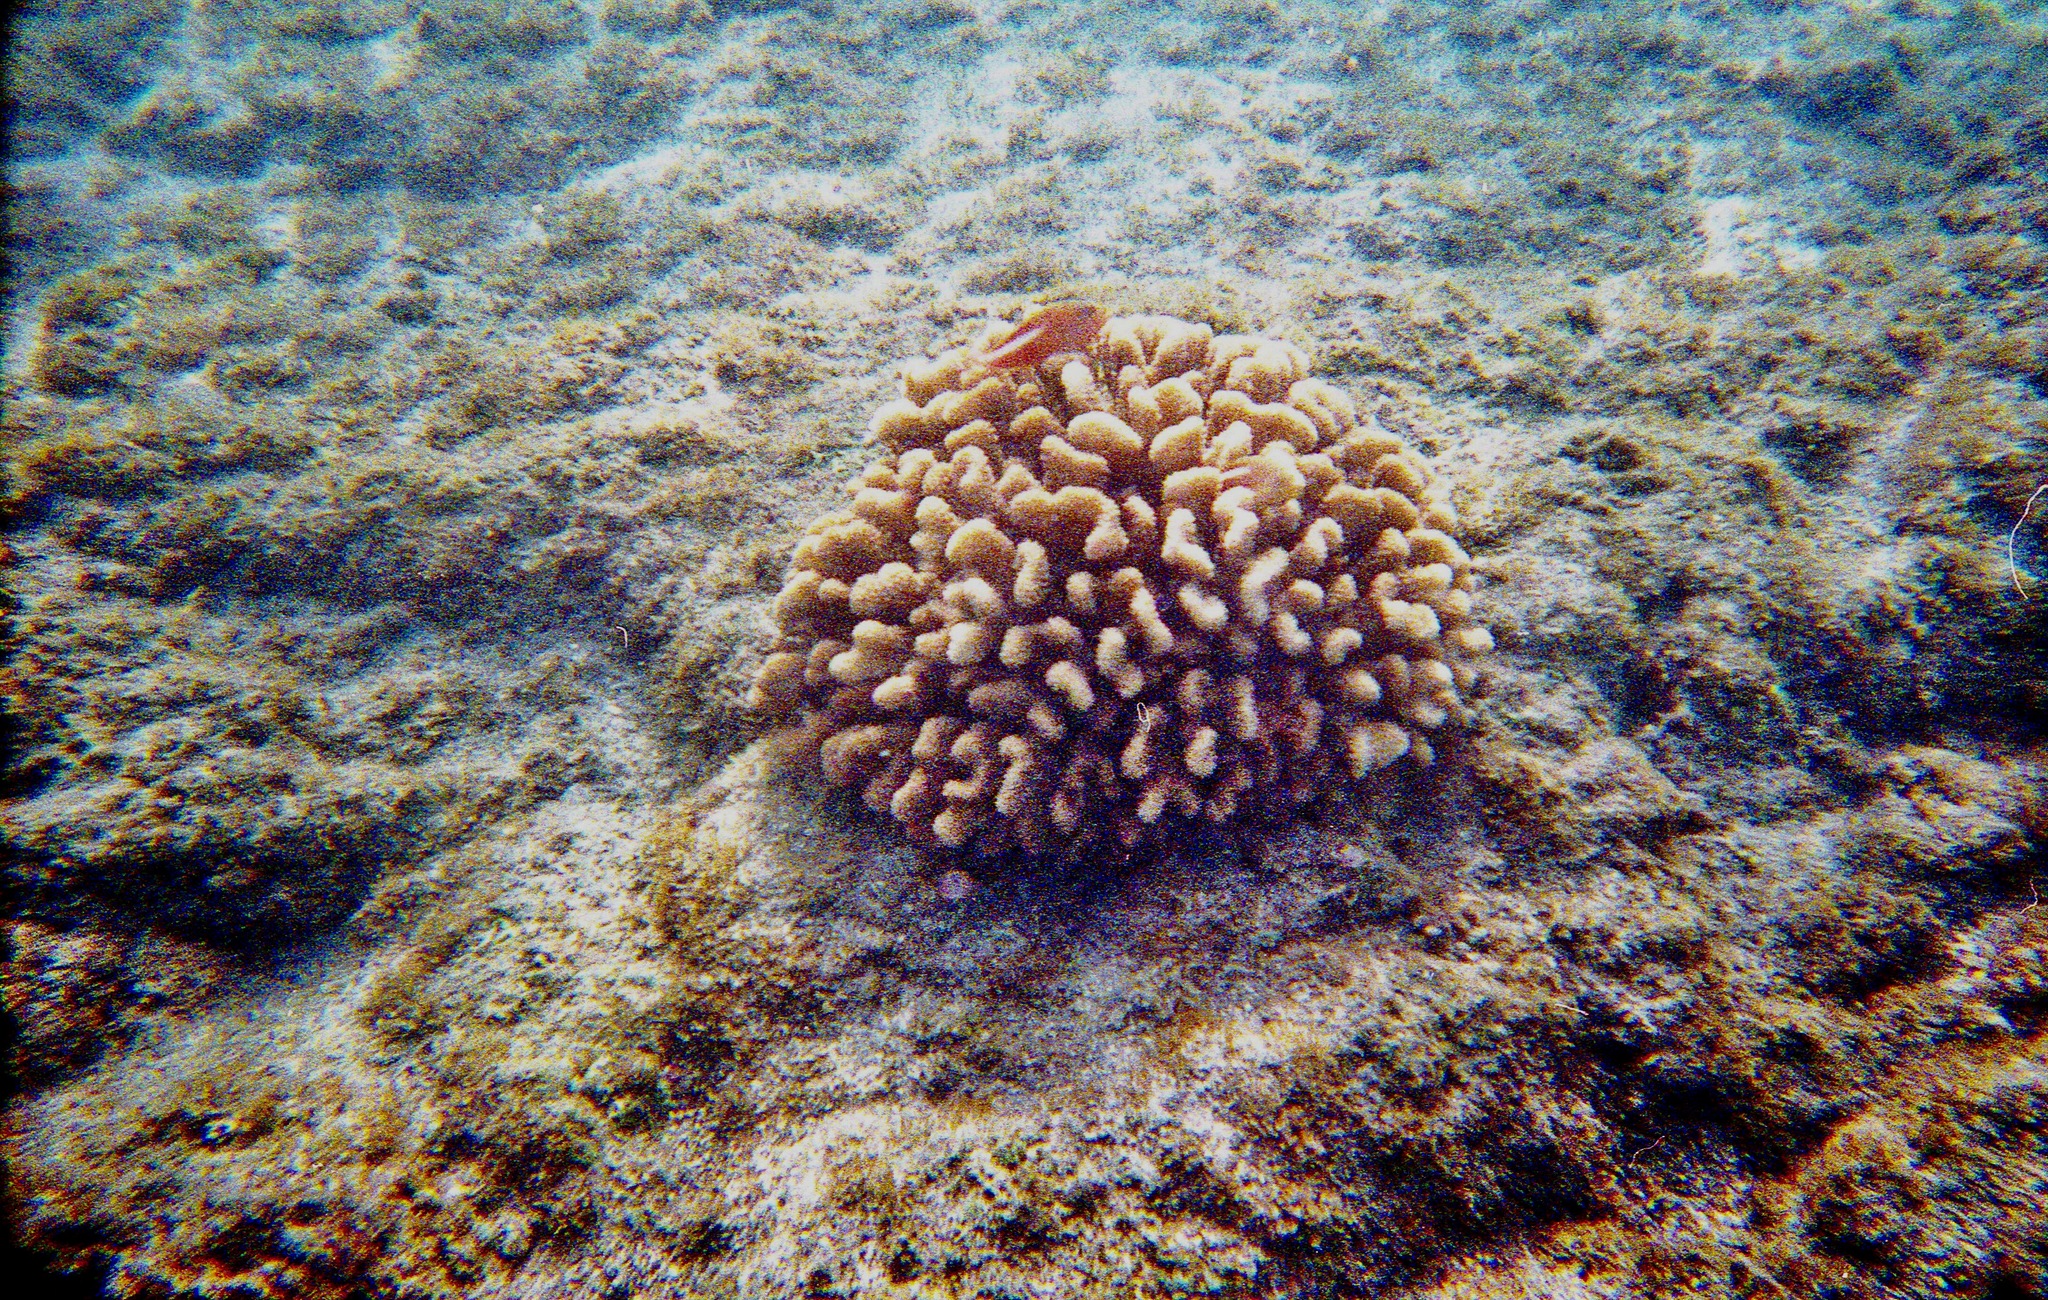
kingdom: Animalia
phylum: Cnidaria
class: Anthozoa
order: Scleractinia
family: Pocilloporidae
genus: Pocillopora
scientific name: Pocillopora meandrina
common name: Cauliflower coral
